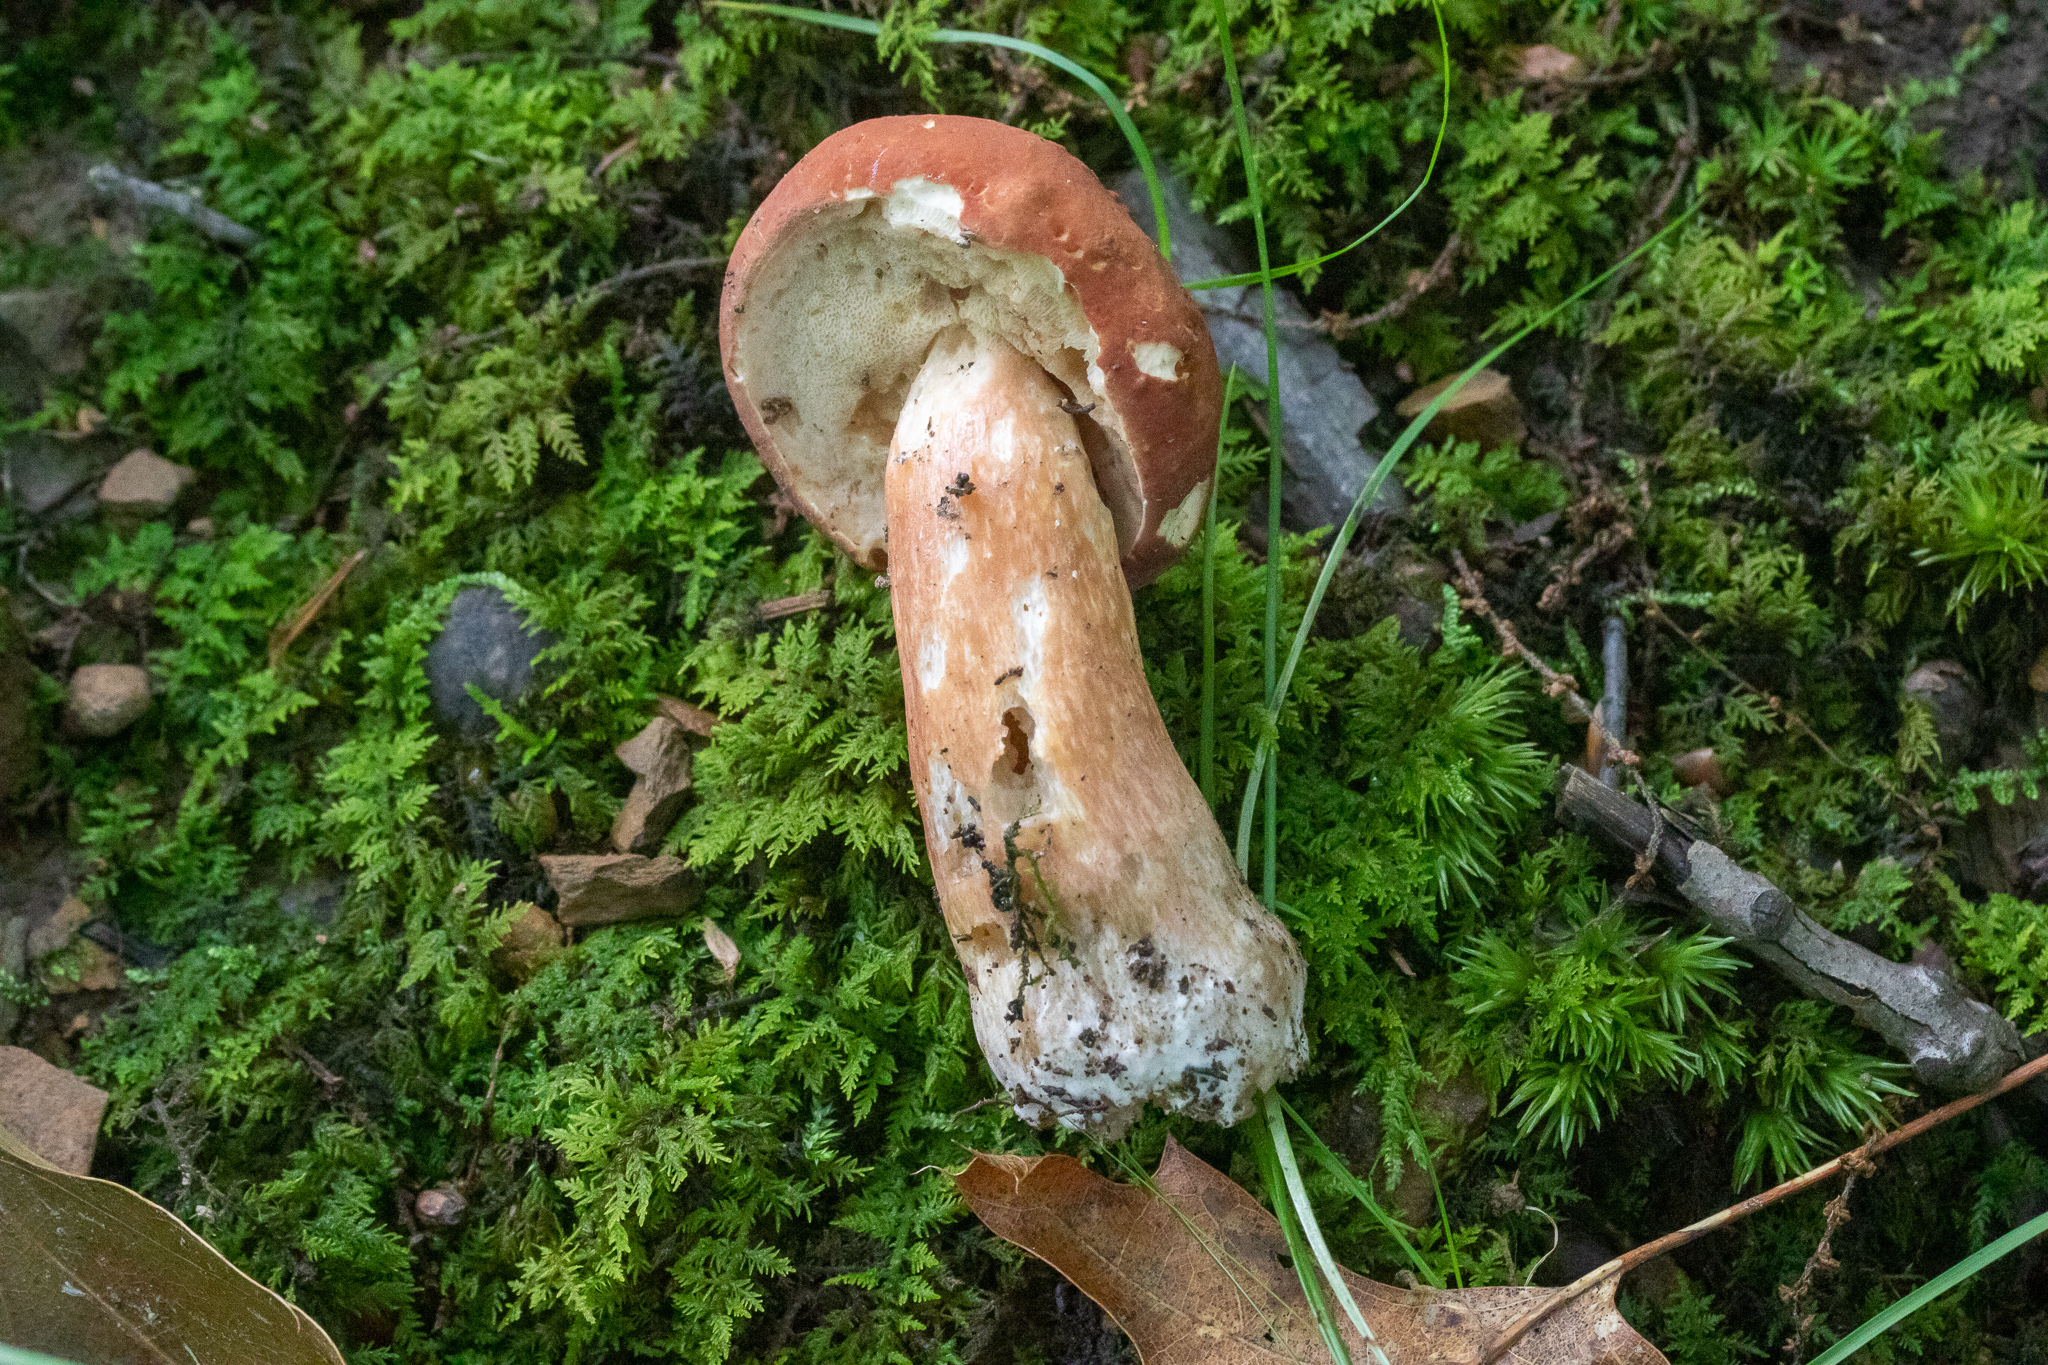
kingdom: Fungi
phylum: Basidiomycota
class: Agaricomycetes
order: Boletales
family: Boletaceae
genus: Xanthoconium
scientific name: Xanthoconium purpureum
